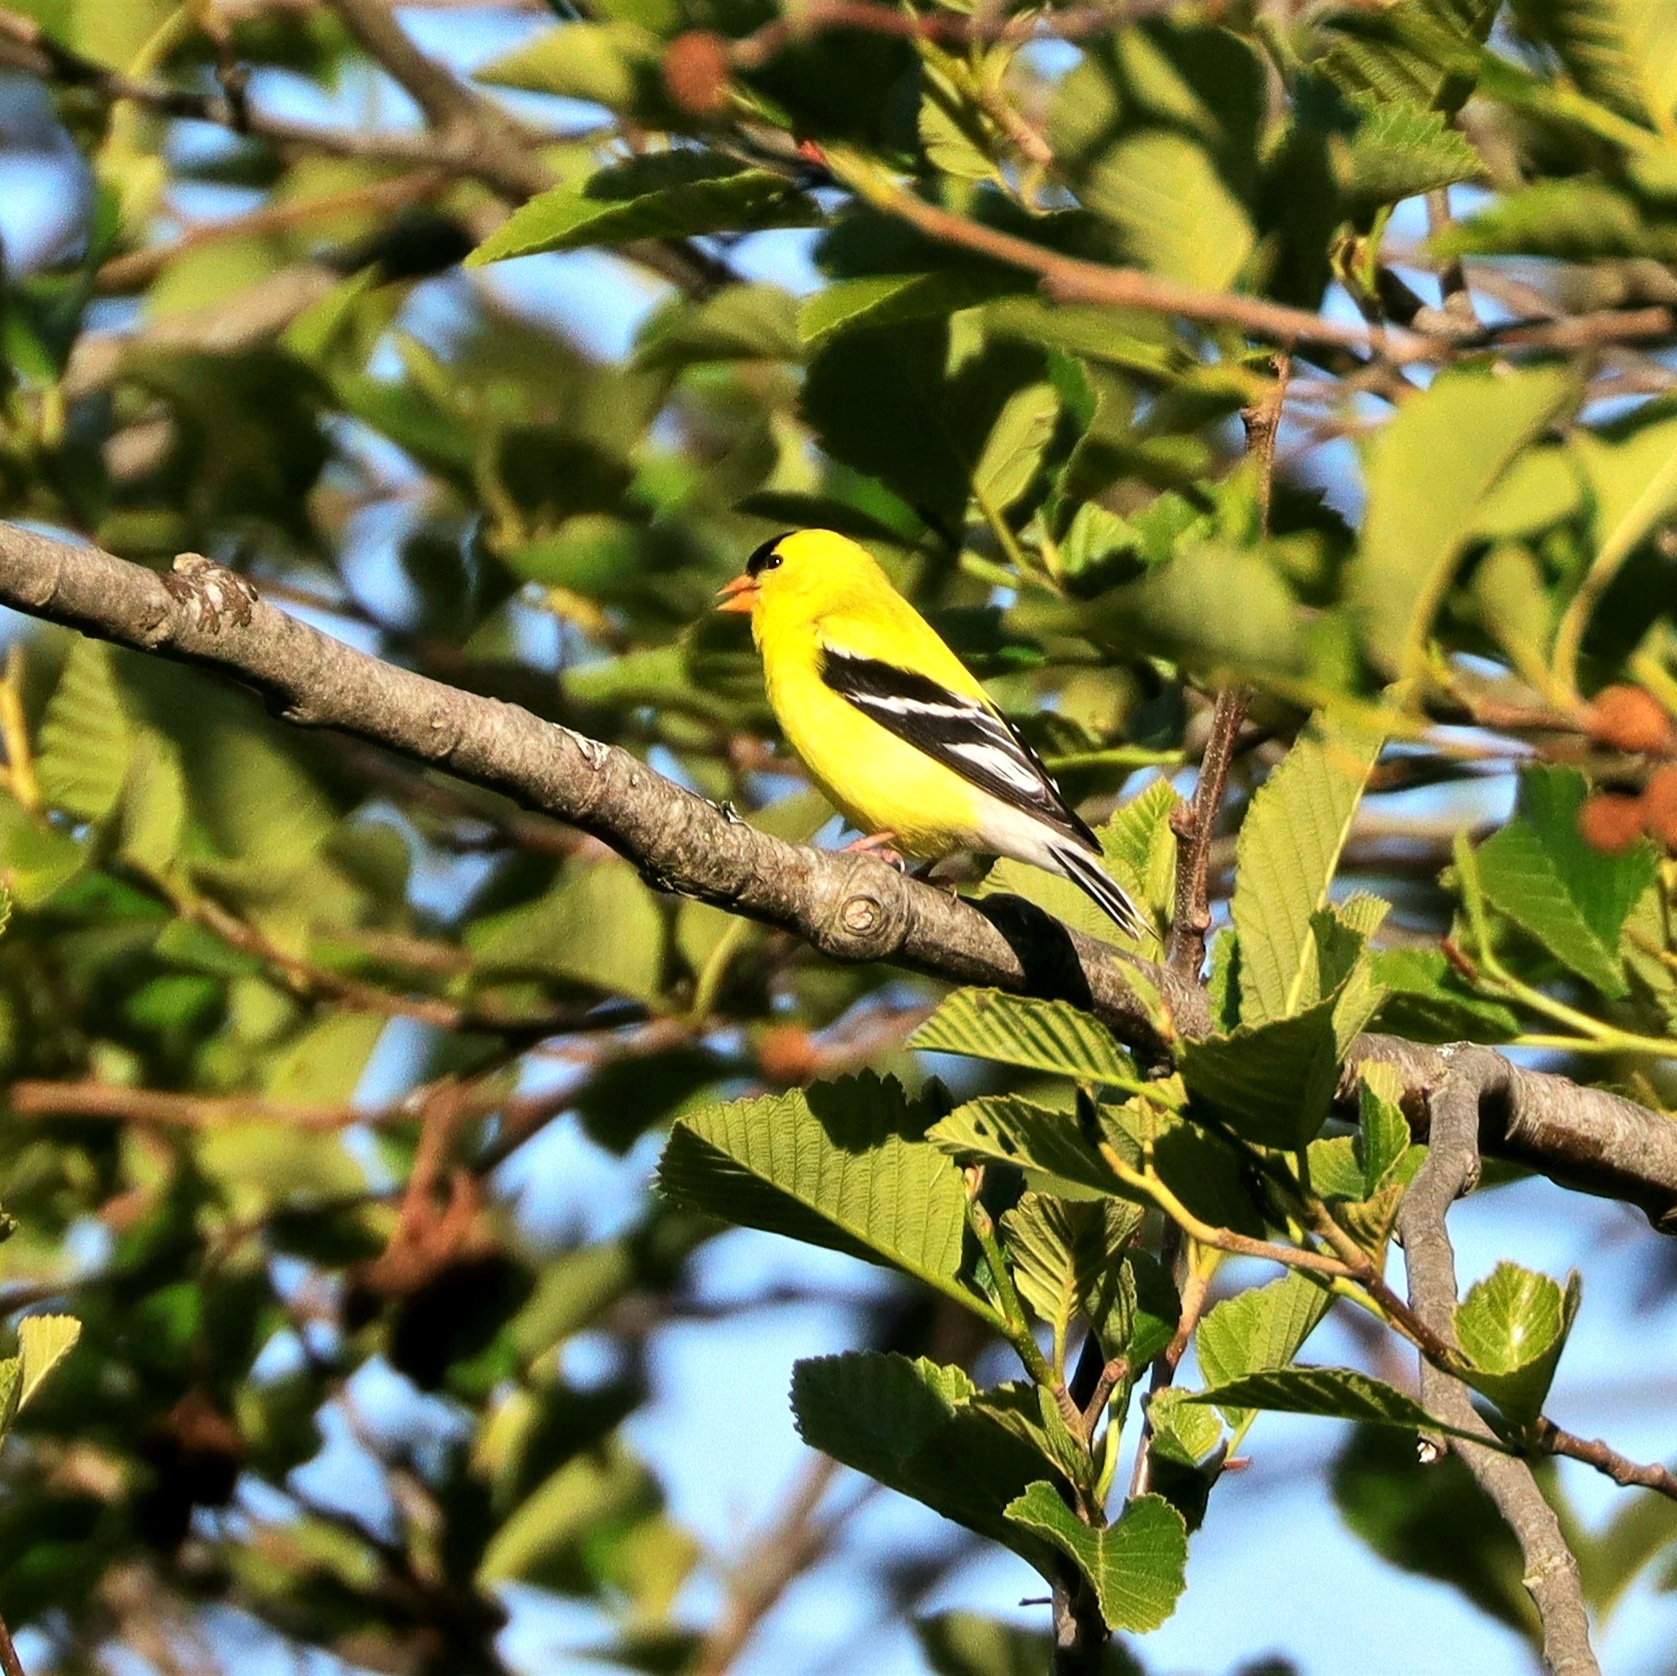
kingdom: Animalia
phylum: Chordata
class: Aves
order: Passeriformes
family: Fringillidae
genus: Spinus
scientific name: Spinus tristis
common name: American goldfinch
